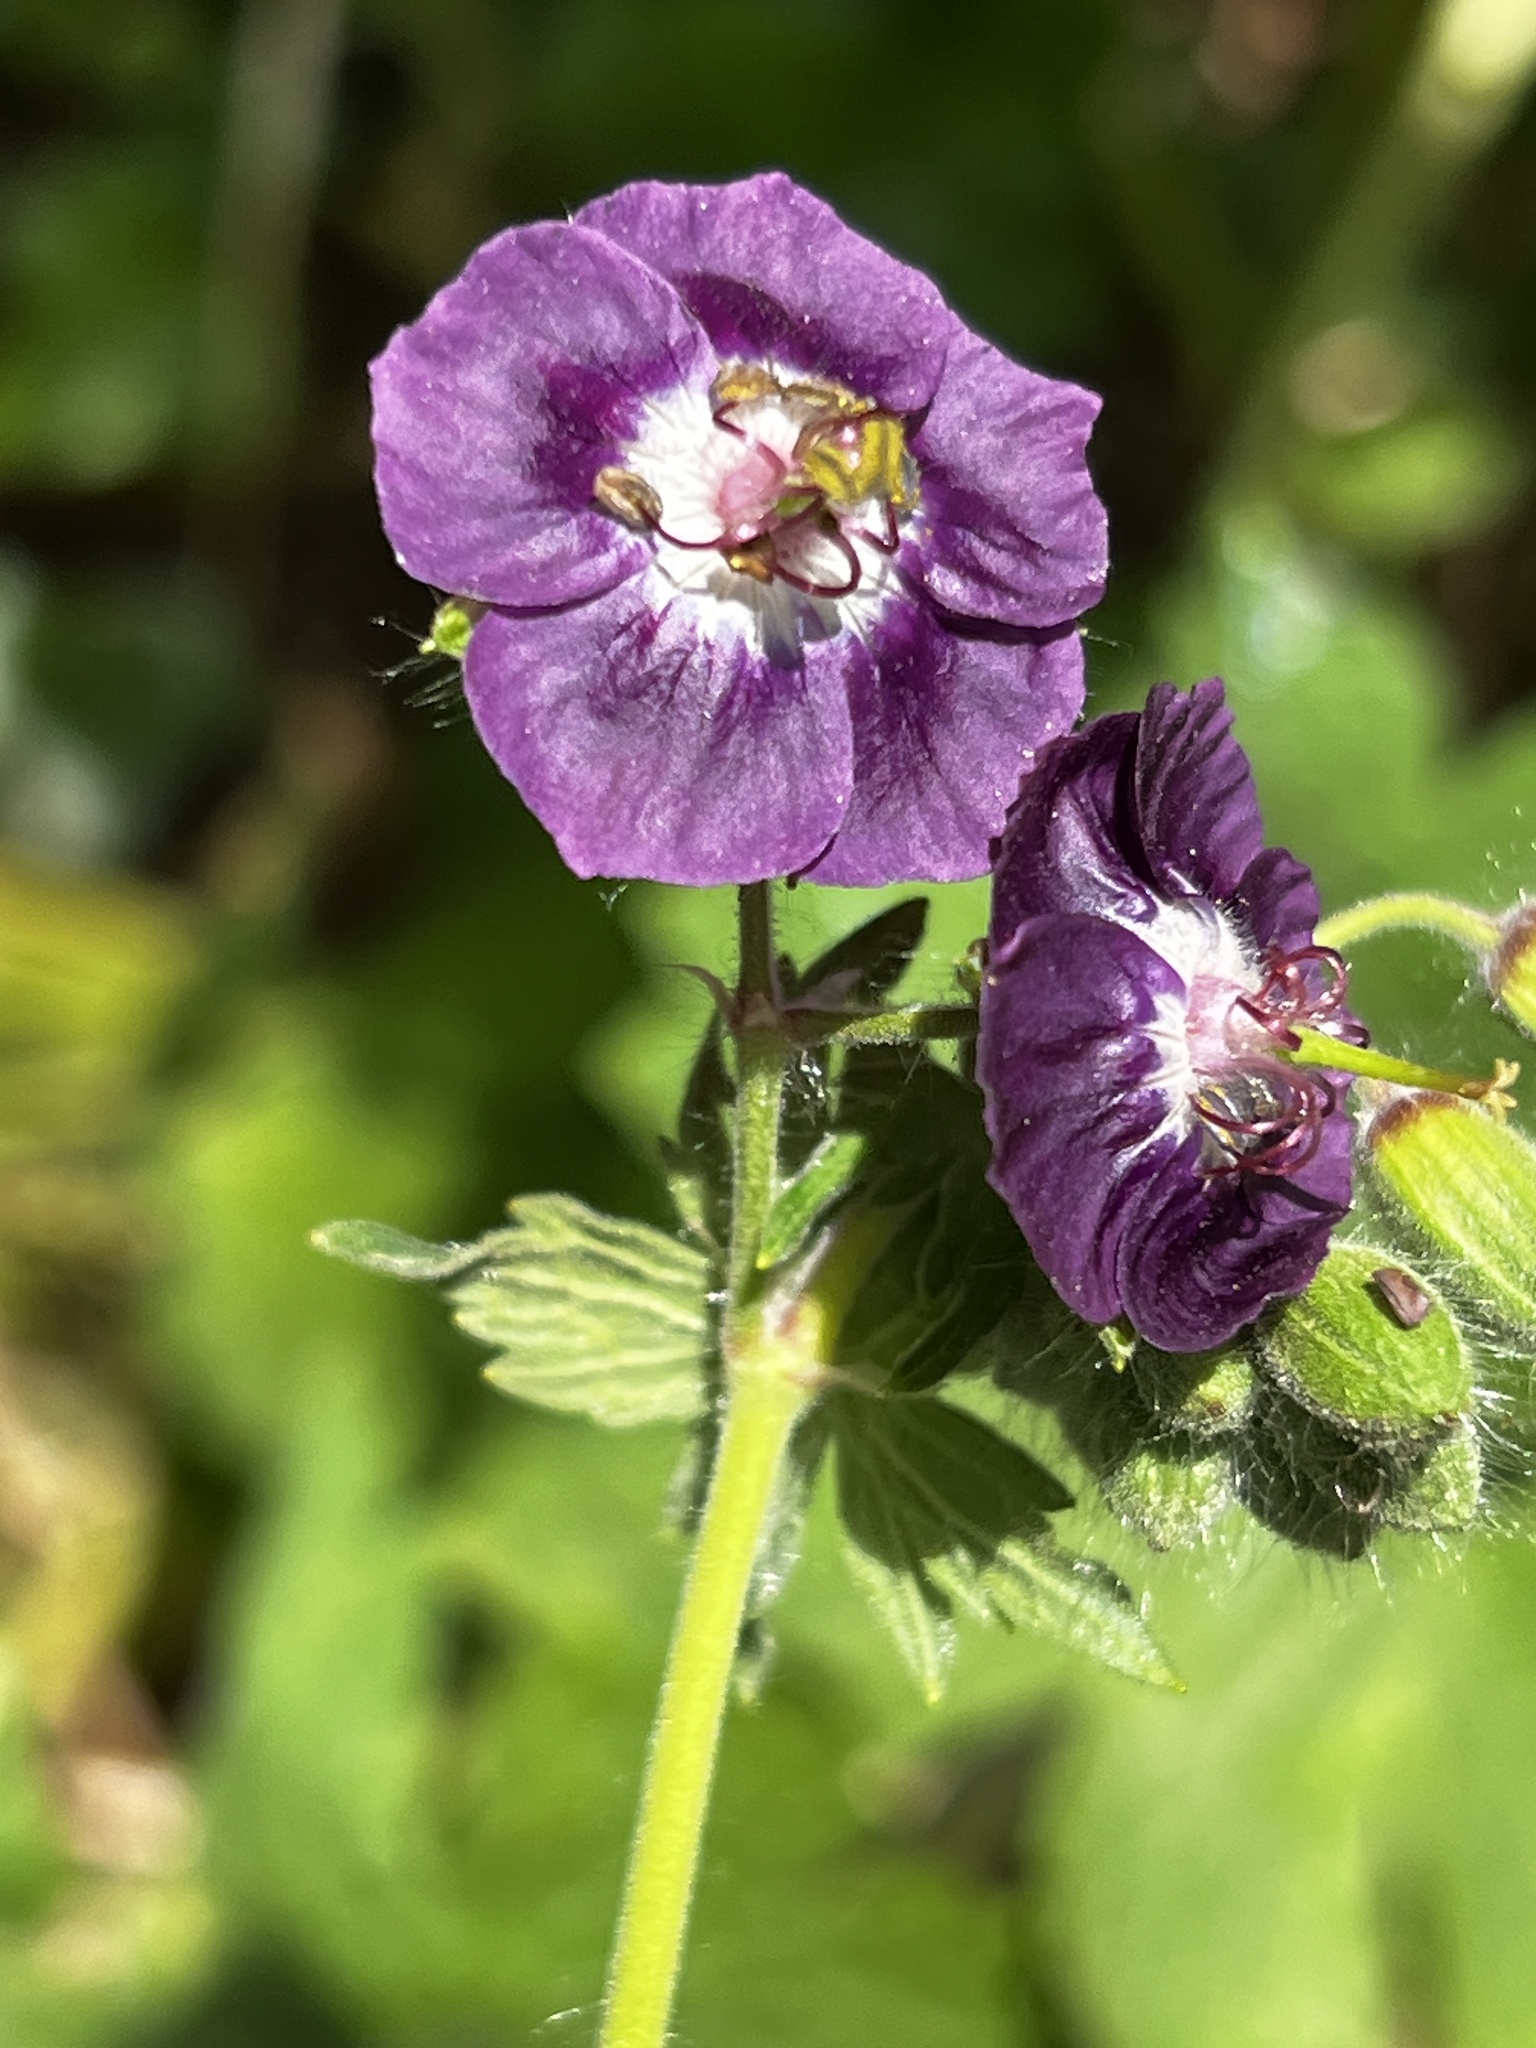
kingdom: Plantae
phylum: Tracheophyta
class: Magnoliopsida
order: Geraniales
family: Geraniaceae
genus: Geranium
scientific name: Geranium phaeum
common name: Dusky crane's-bill
